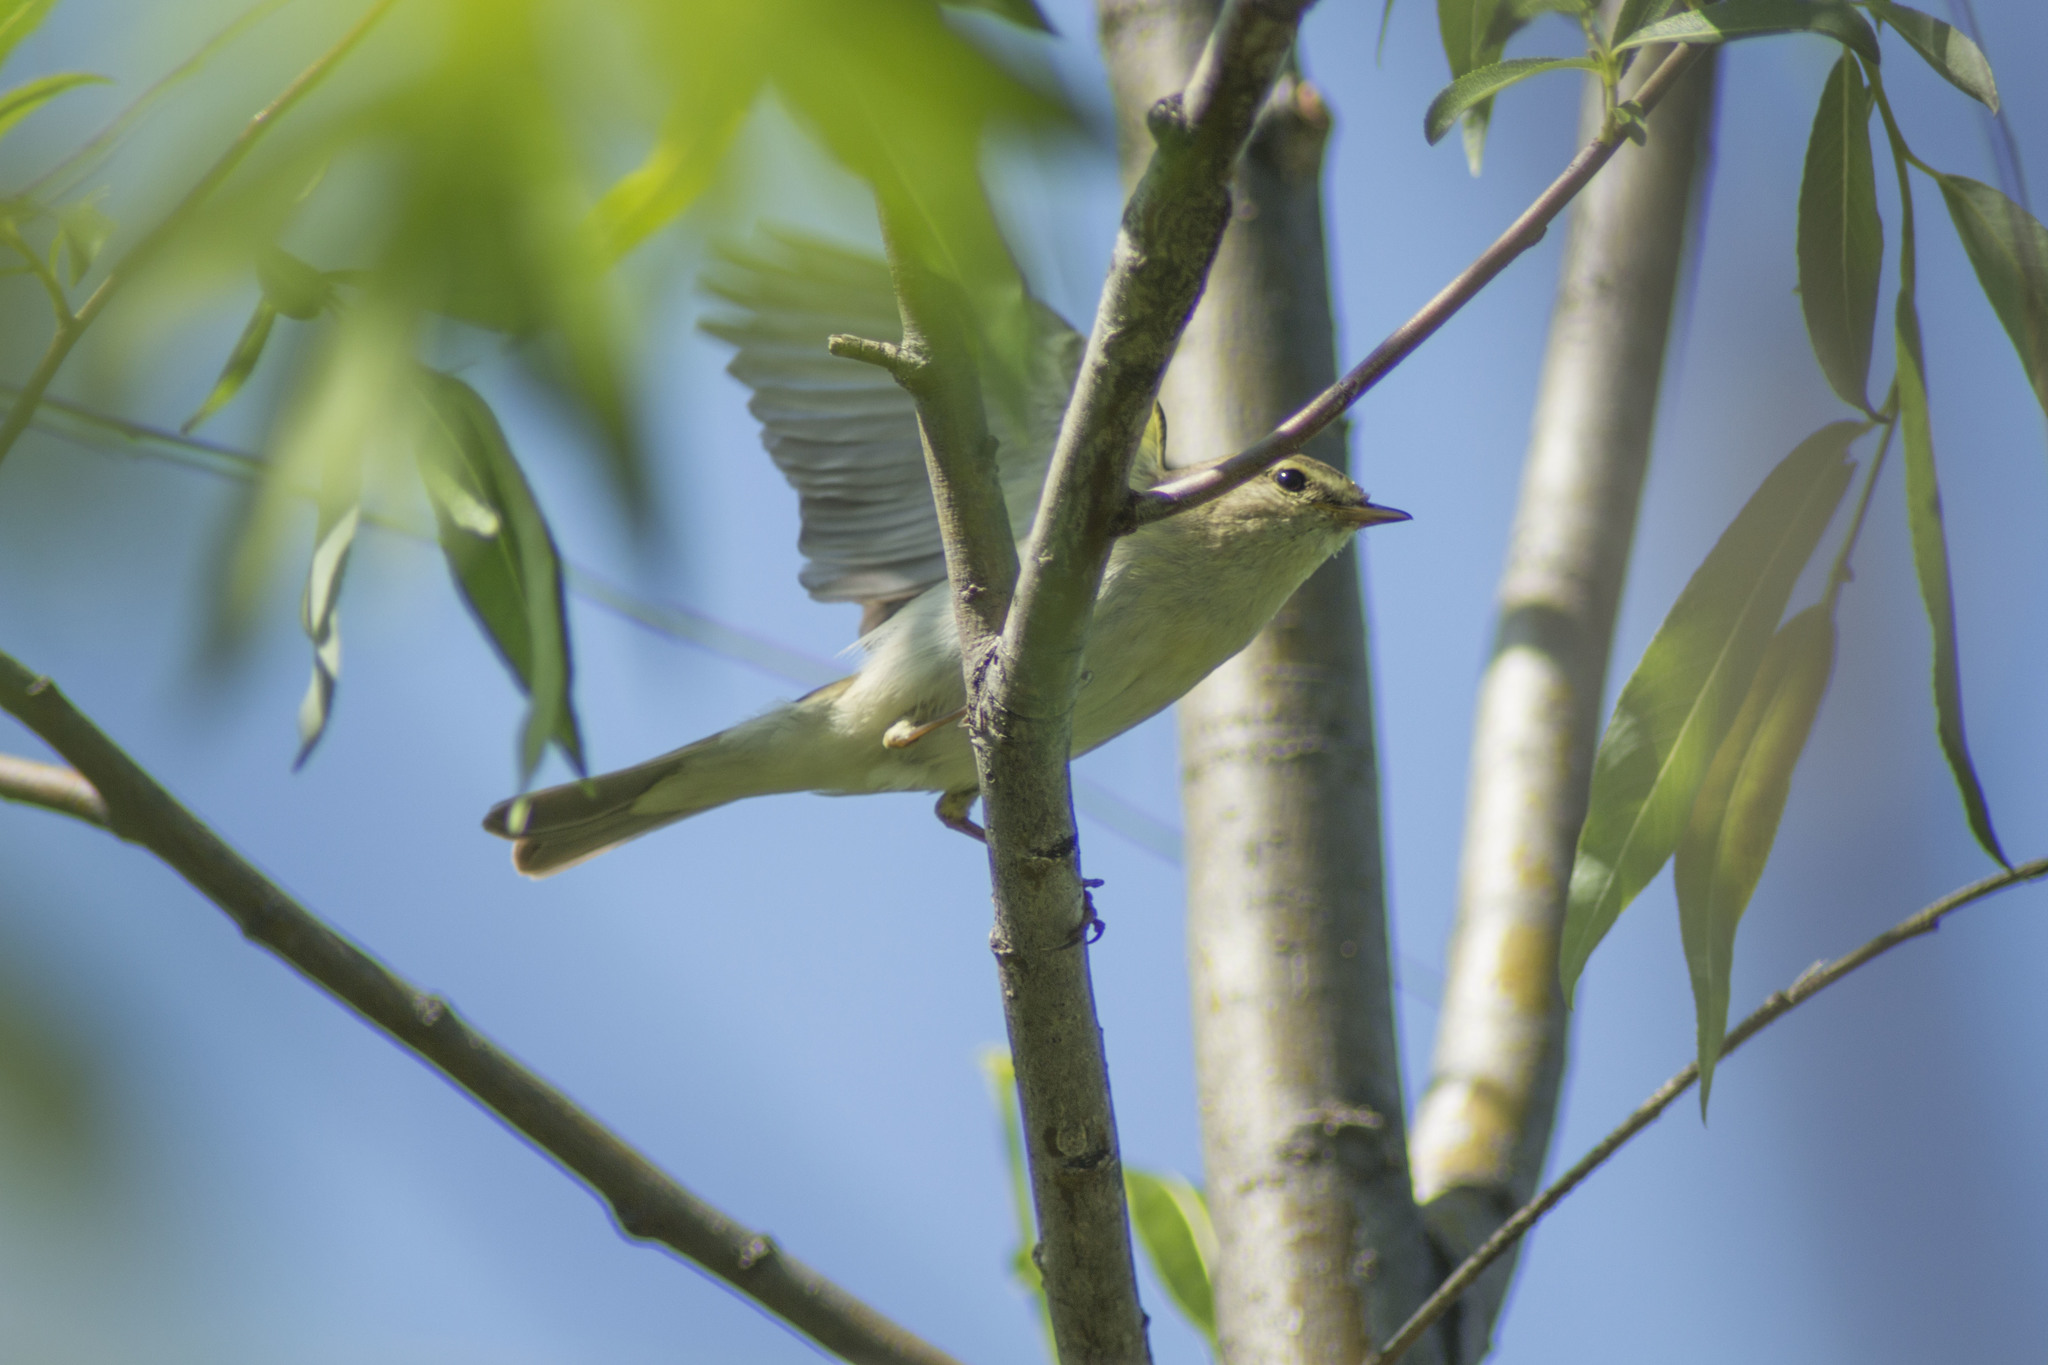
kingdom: Animalia
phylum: Chordata
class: Aves
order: Passeriformes
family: Phylloscopidae
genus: Phylloscopus
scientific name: Phylloscopus trochilus
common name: Willow warbler
